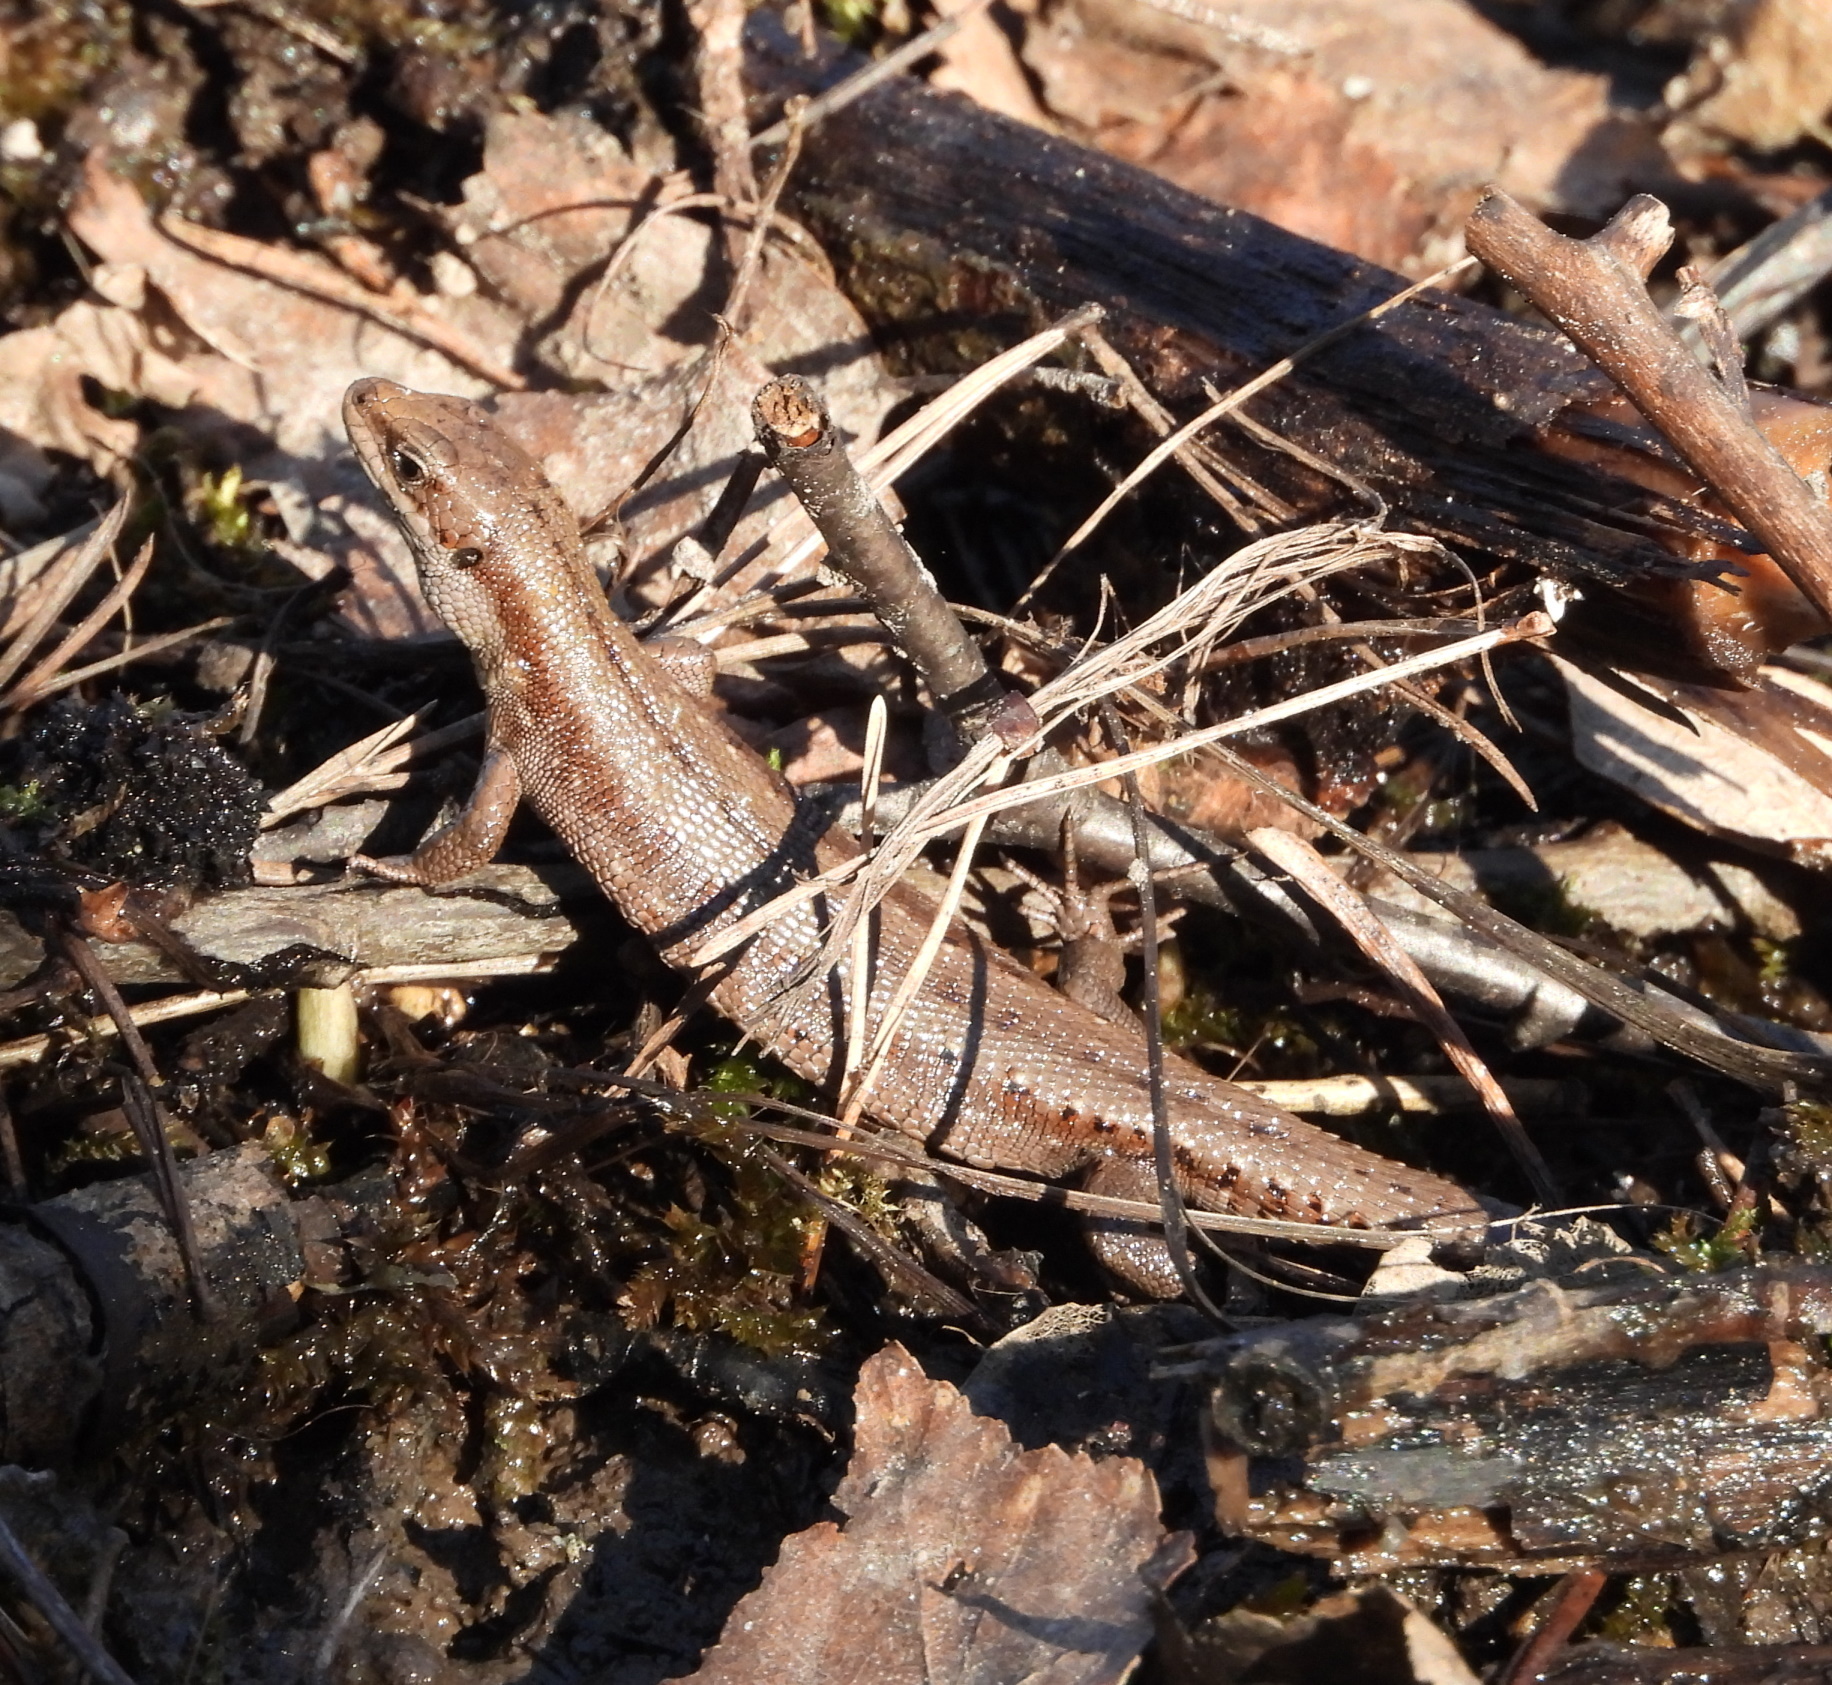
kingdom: Animalia
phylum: Chordata
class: Squamata
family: Lacertidae
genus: Zootoca
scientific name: Zootoca vivipara
